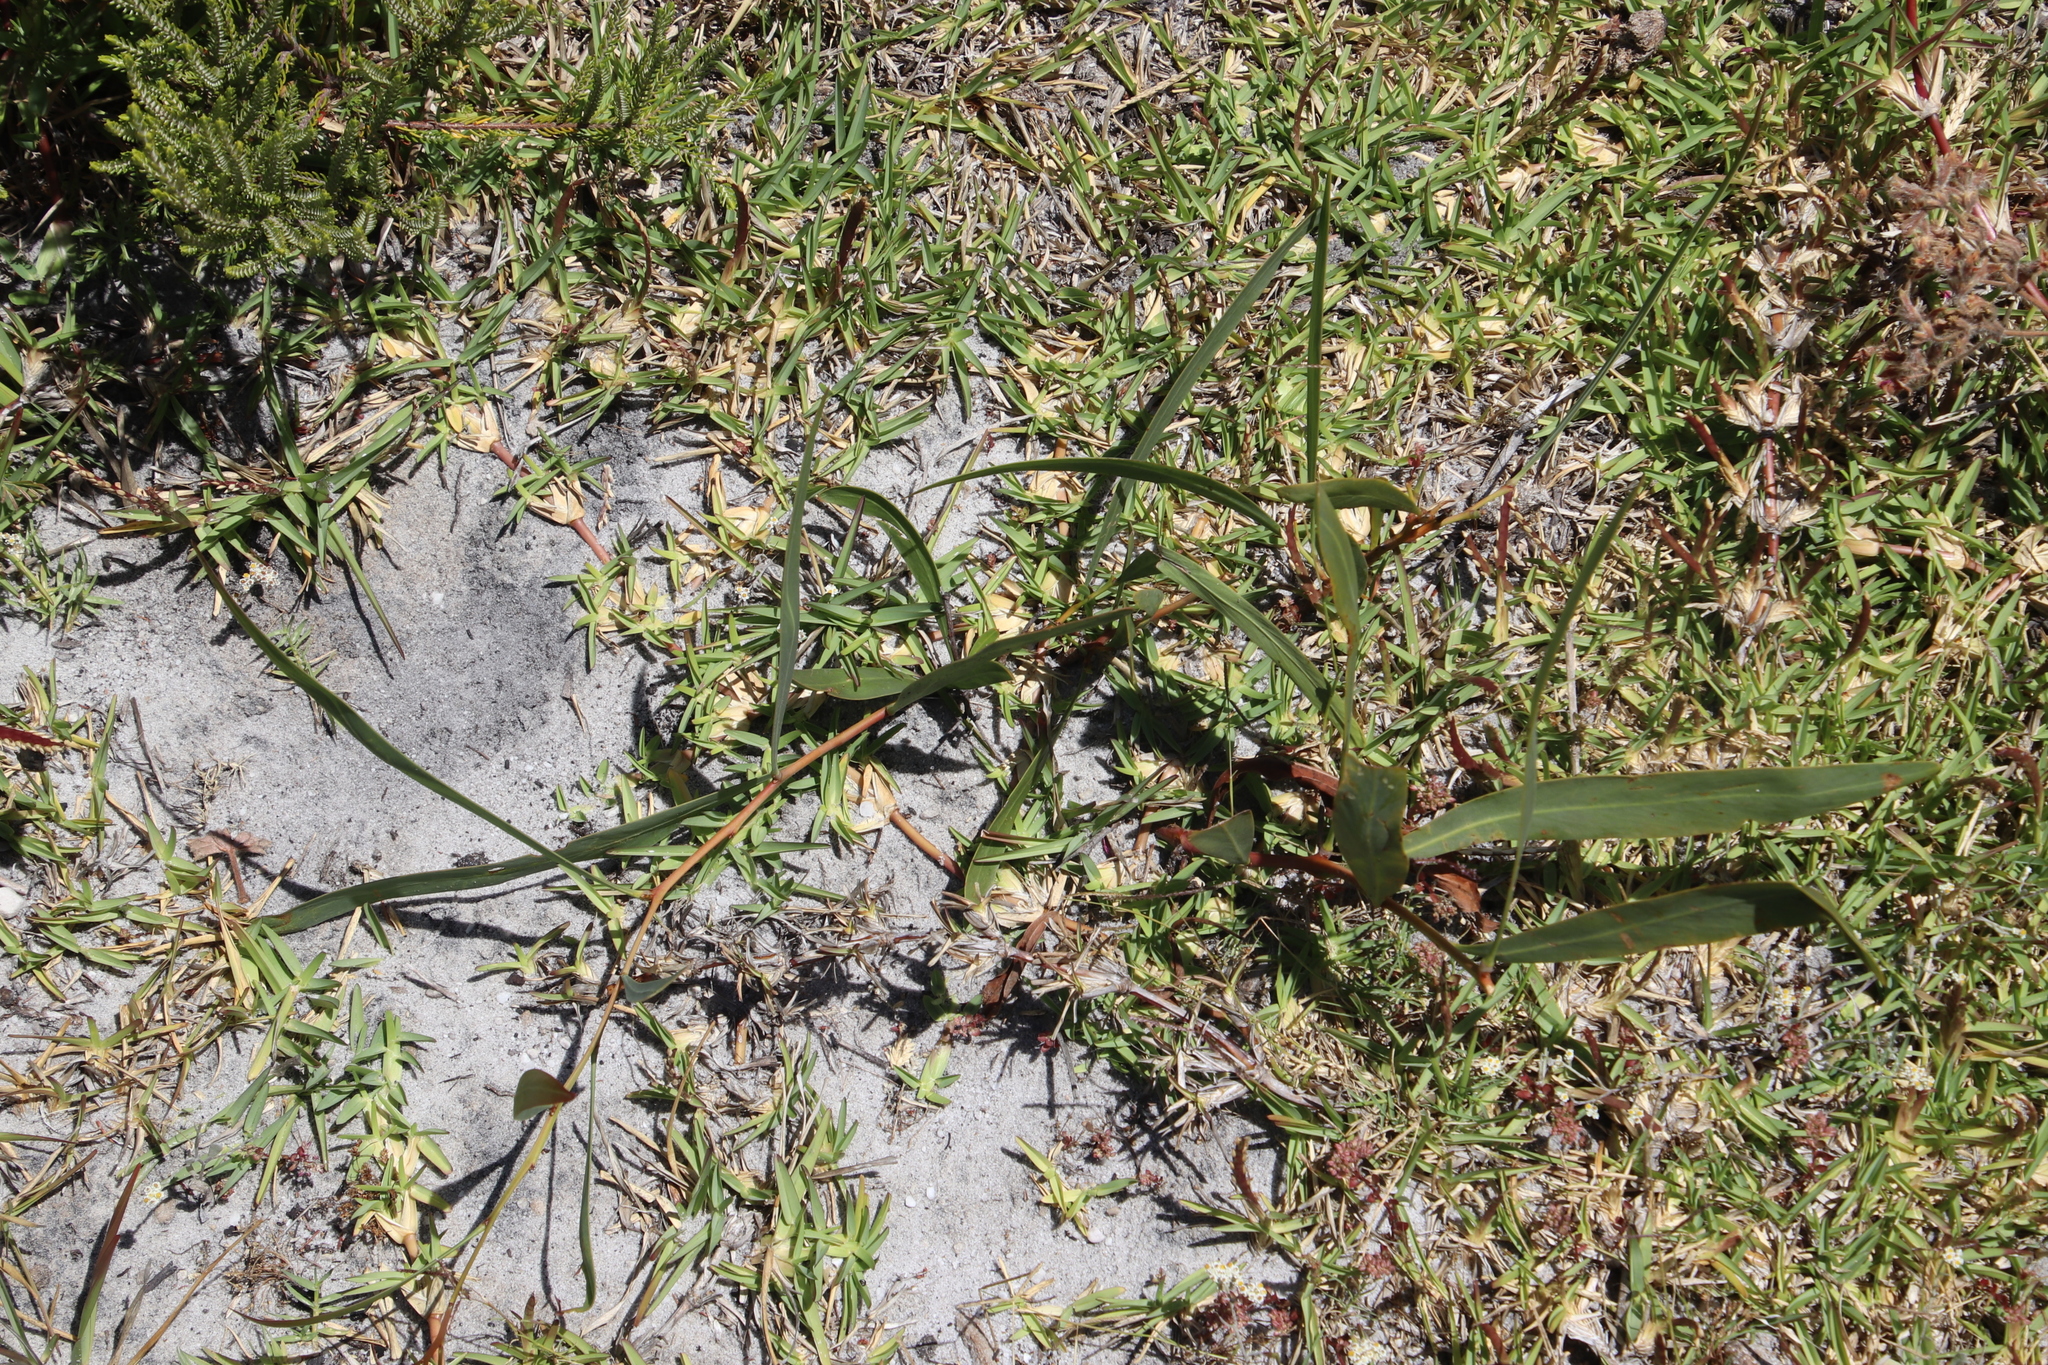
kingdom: Plantae
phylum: Tracheophyta
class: Magnoliopsida
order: Fabales
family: Fabaceae
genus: Acacia
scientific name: Acacia saligna
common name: Orange wattle
